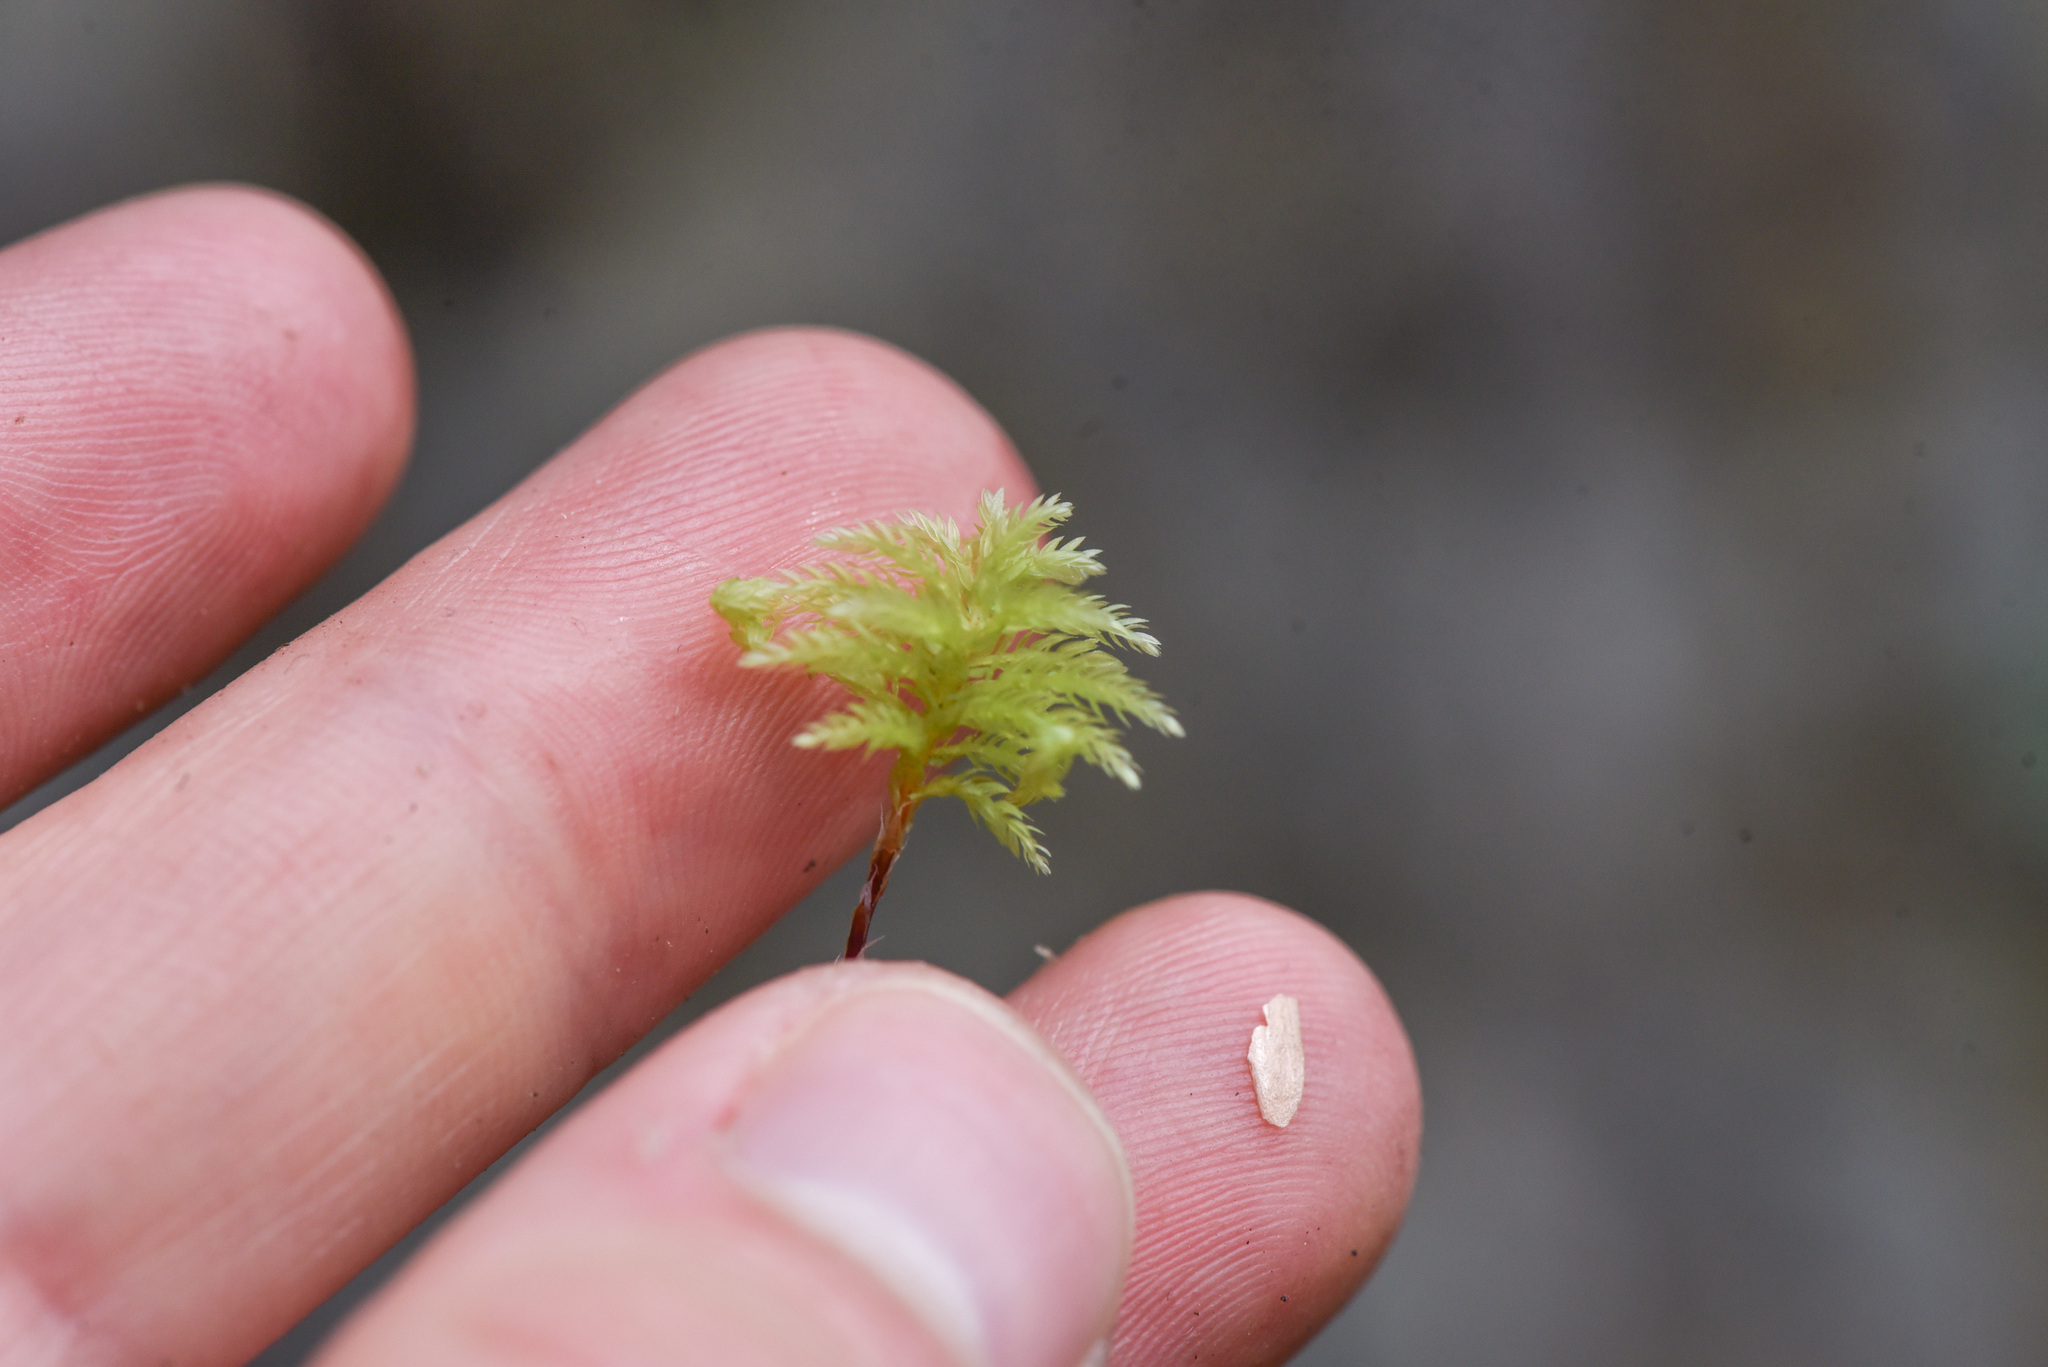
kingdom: Plantae
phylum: Bryophyta
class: Bryopsida
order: Bryales
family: Mniaceae
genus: Leucolepis
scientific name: Leucolepis acanthoneura
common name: Leucolepis umbrella moss
